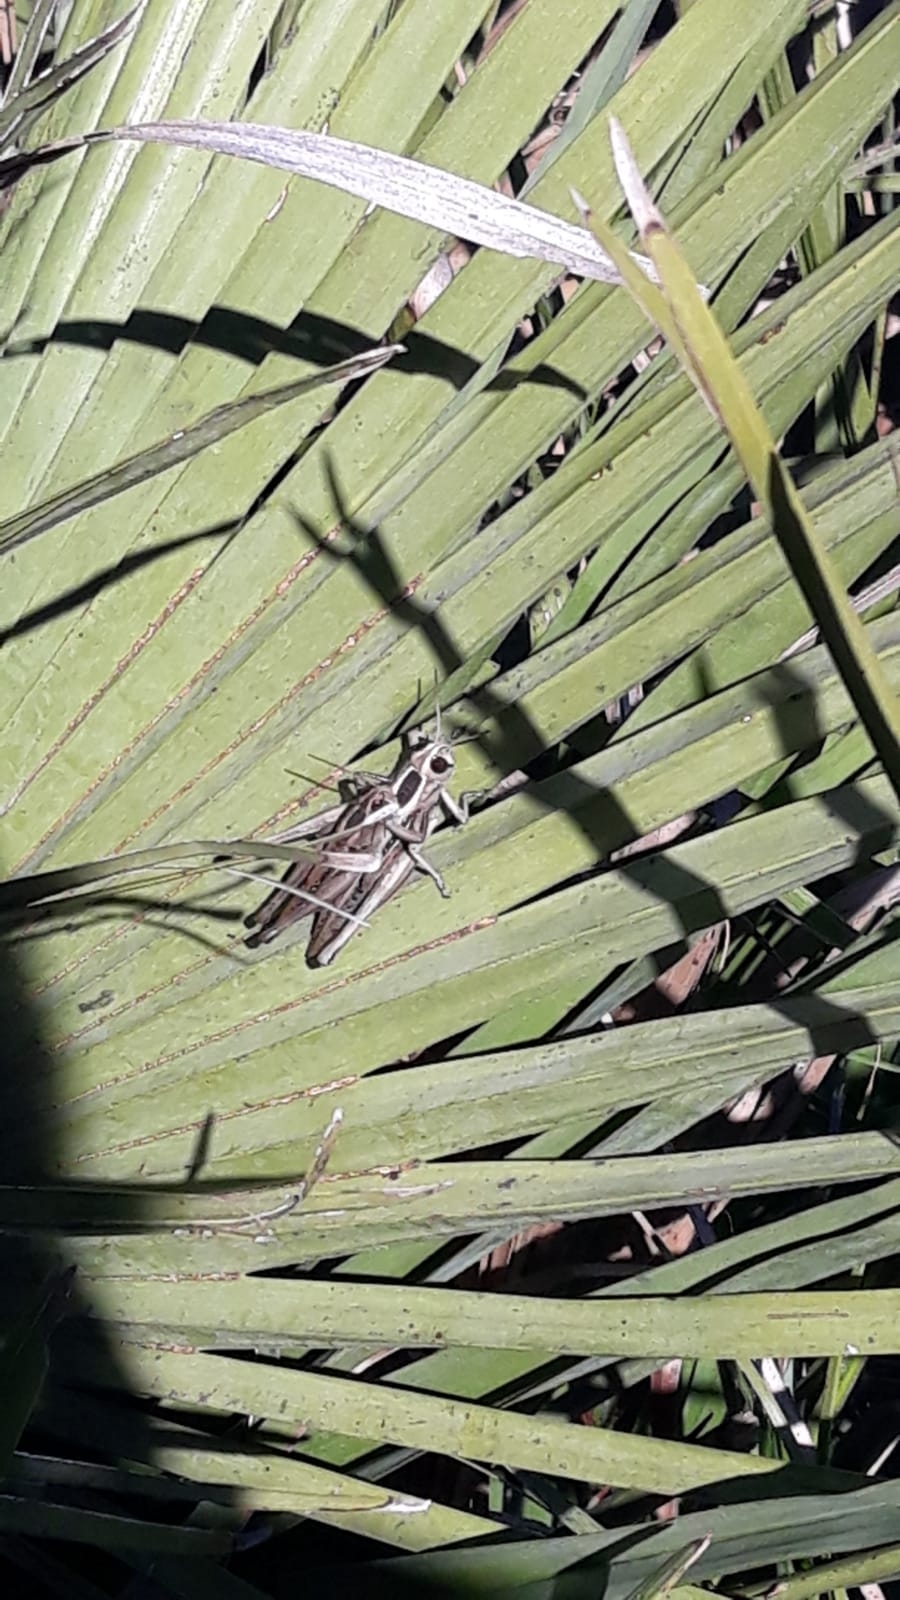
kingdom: Animalia
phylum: Arthropoda
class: Insecta
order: Orthoptera
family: Acrididae
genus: Eyprepocnemis
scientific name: Eyprepocnemis plorans
